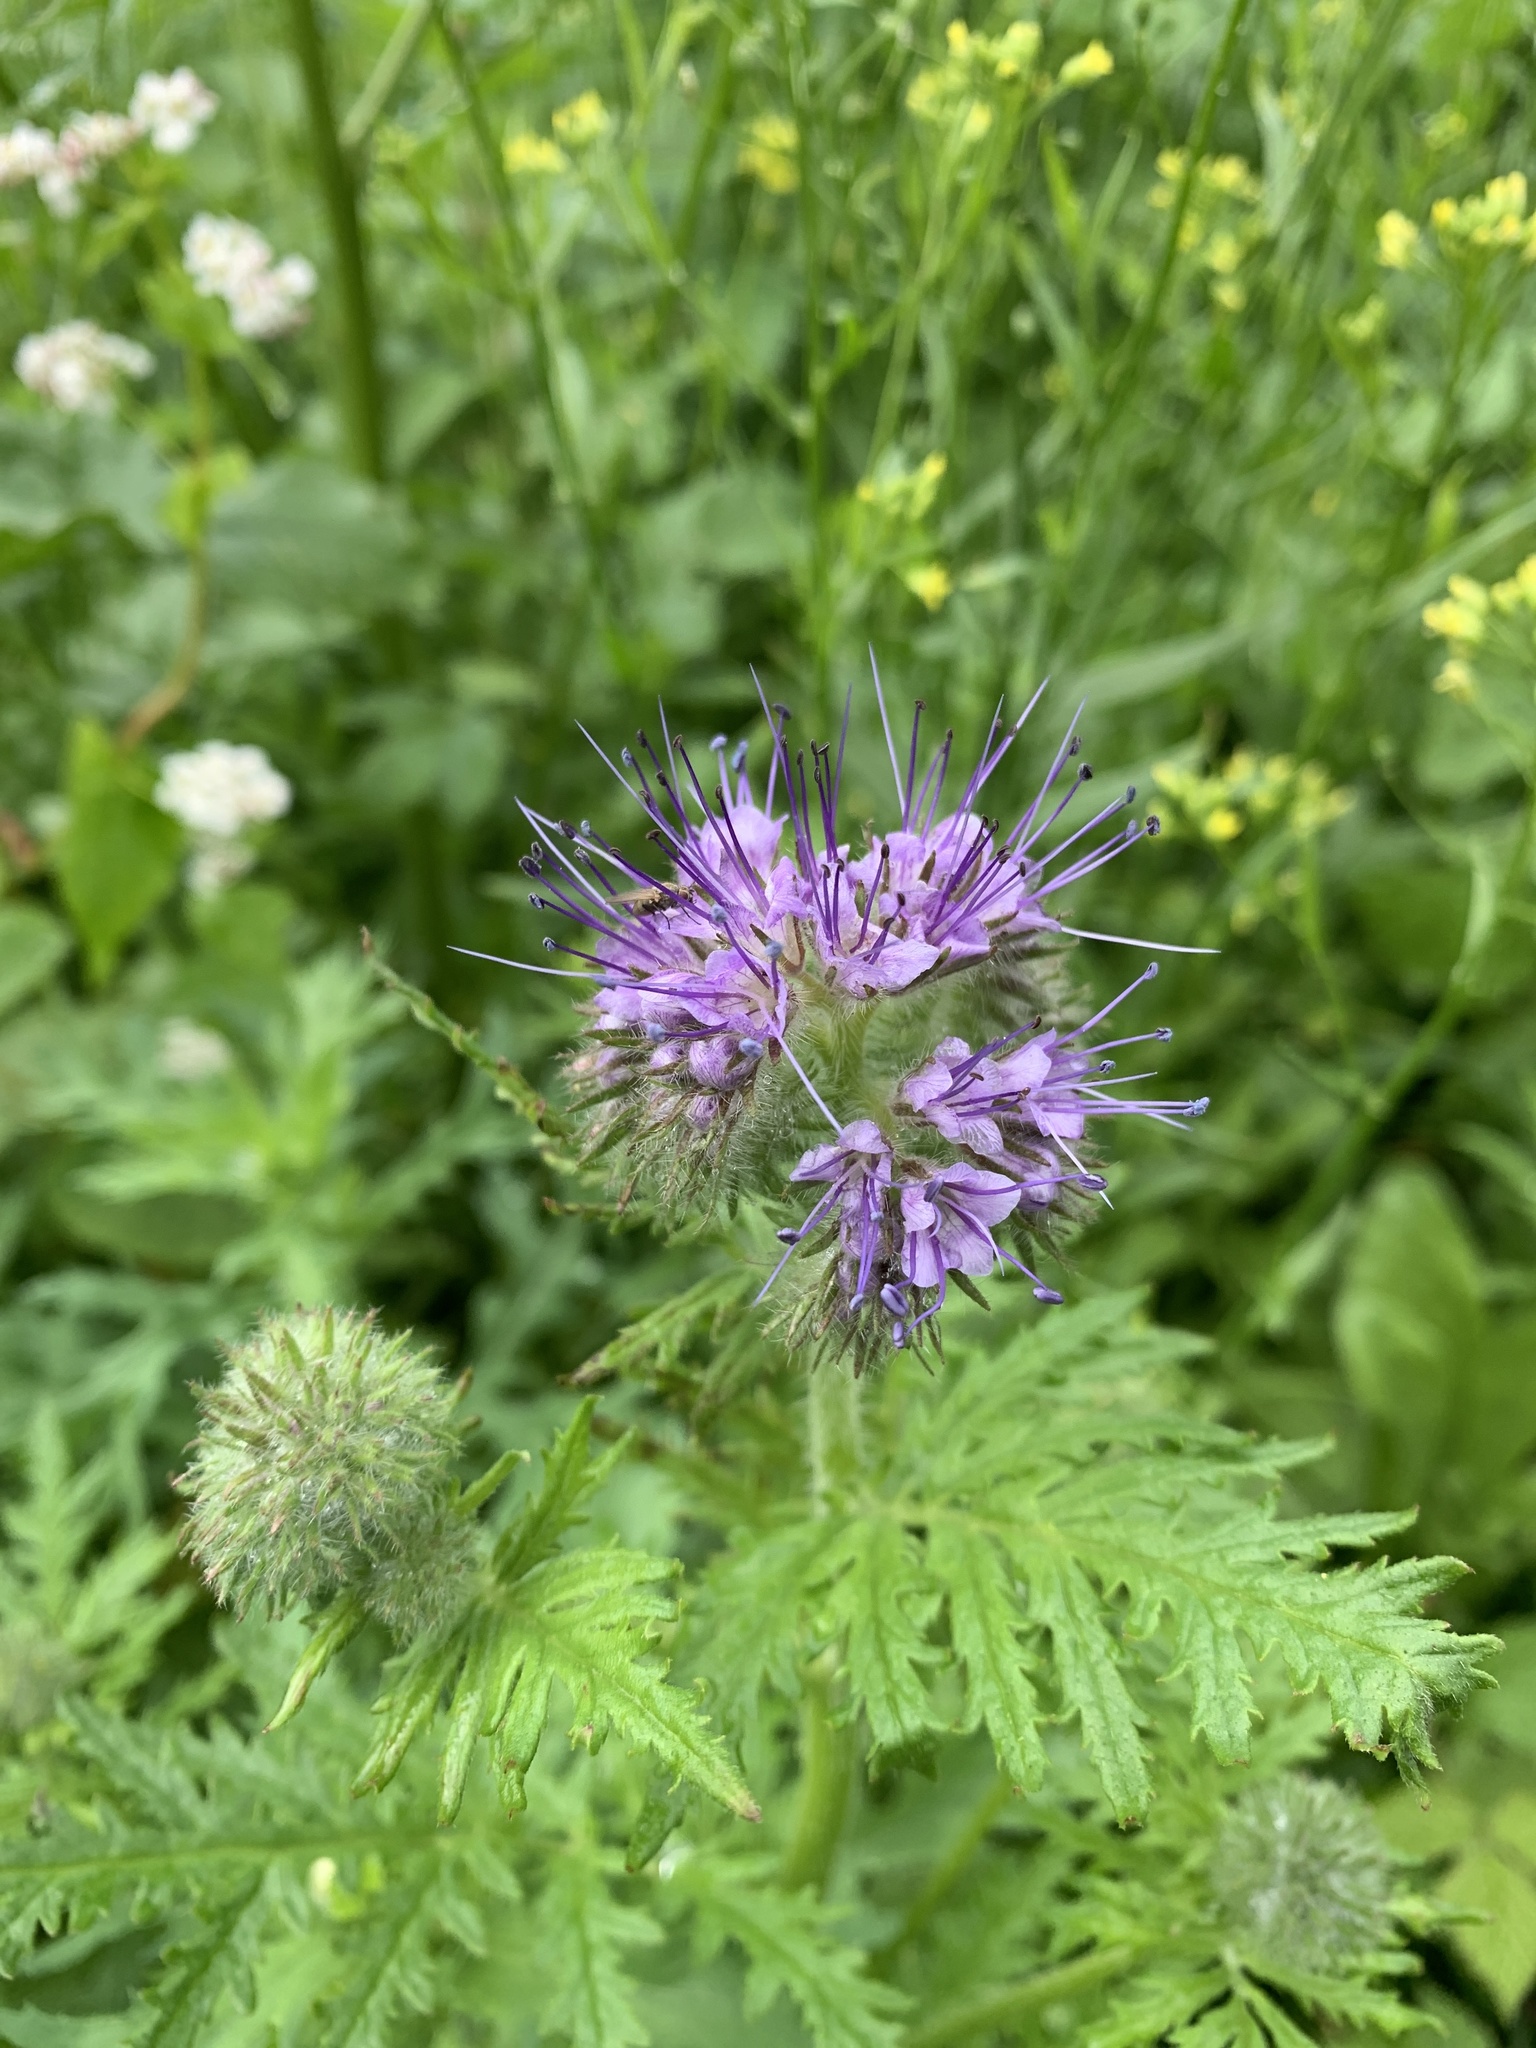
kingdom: Plantae
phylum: Tracheophyta
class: Magnoliopsida
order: Boraginales
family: Hydrophyllaceae
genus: Phacelia
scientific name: Phacelia tanacetifolia
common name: Phacelia
